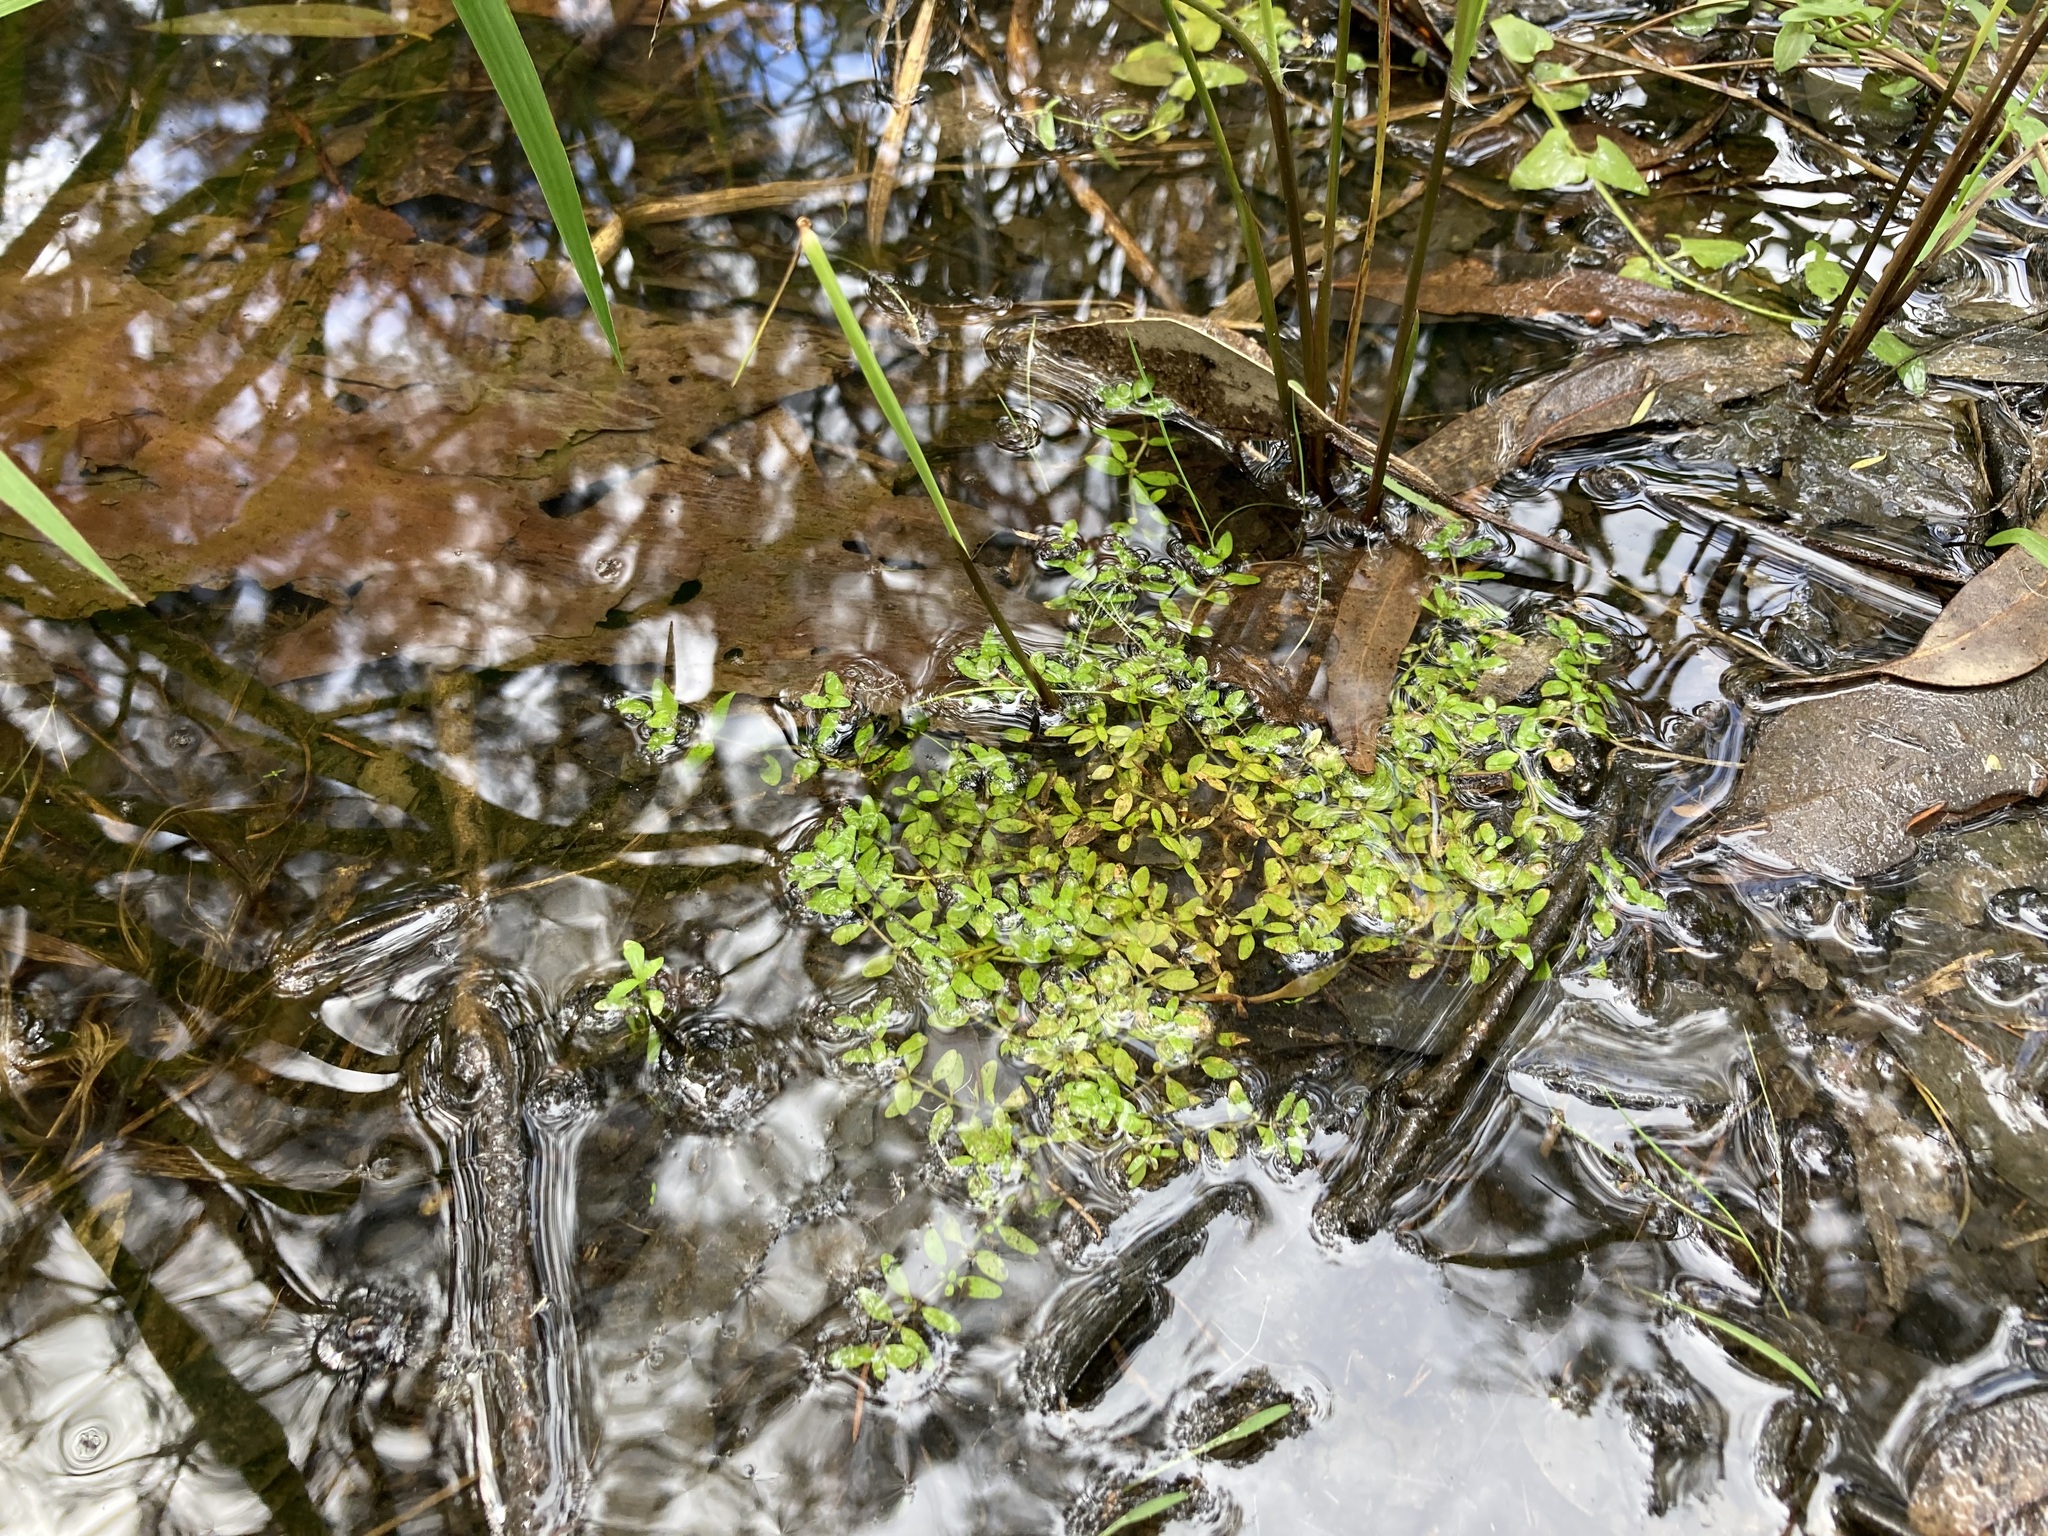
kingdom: Plantae
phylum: Tracheophyta
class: Magnoliopsida
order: Malpighiales
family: Elatinaceae
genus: Elatine
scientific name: Elatine gratioloides
